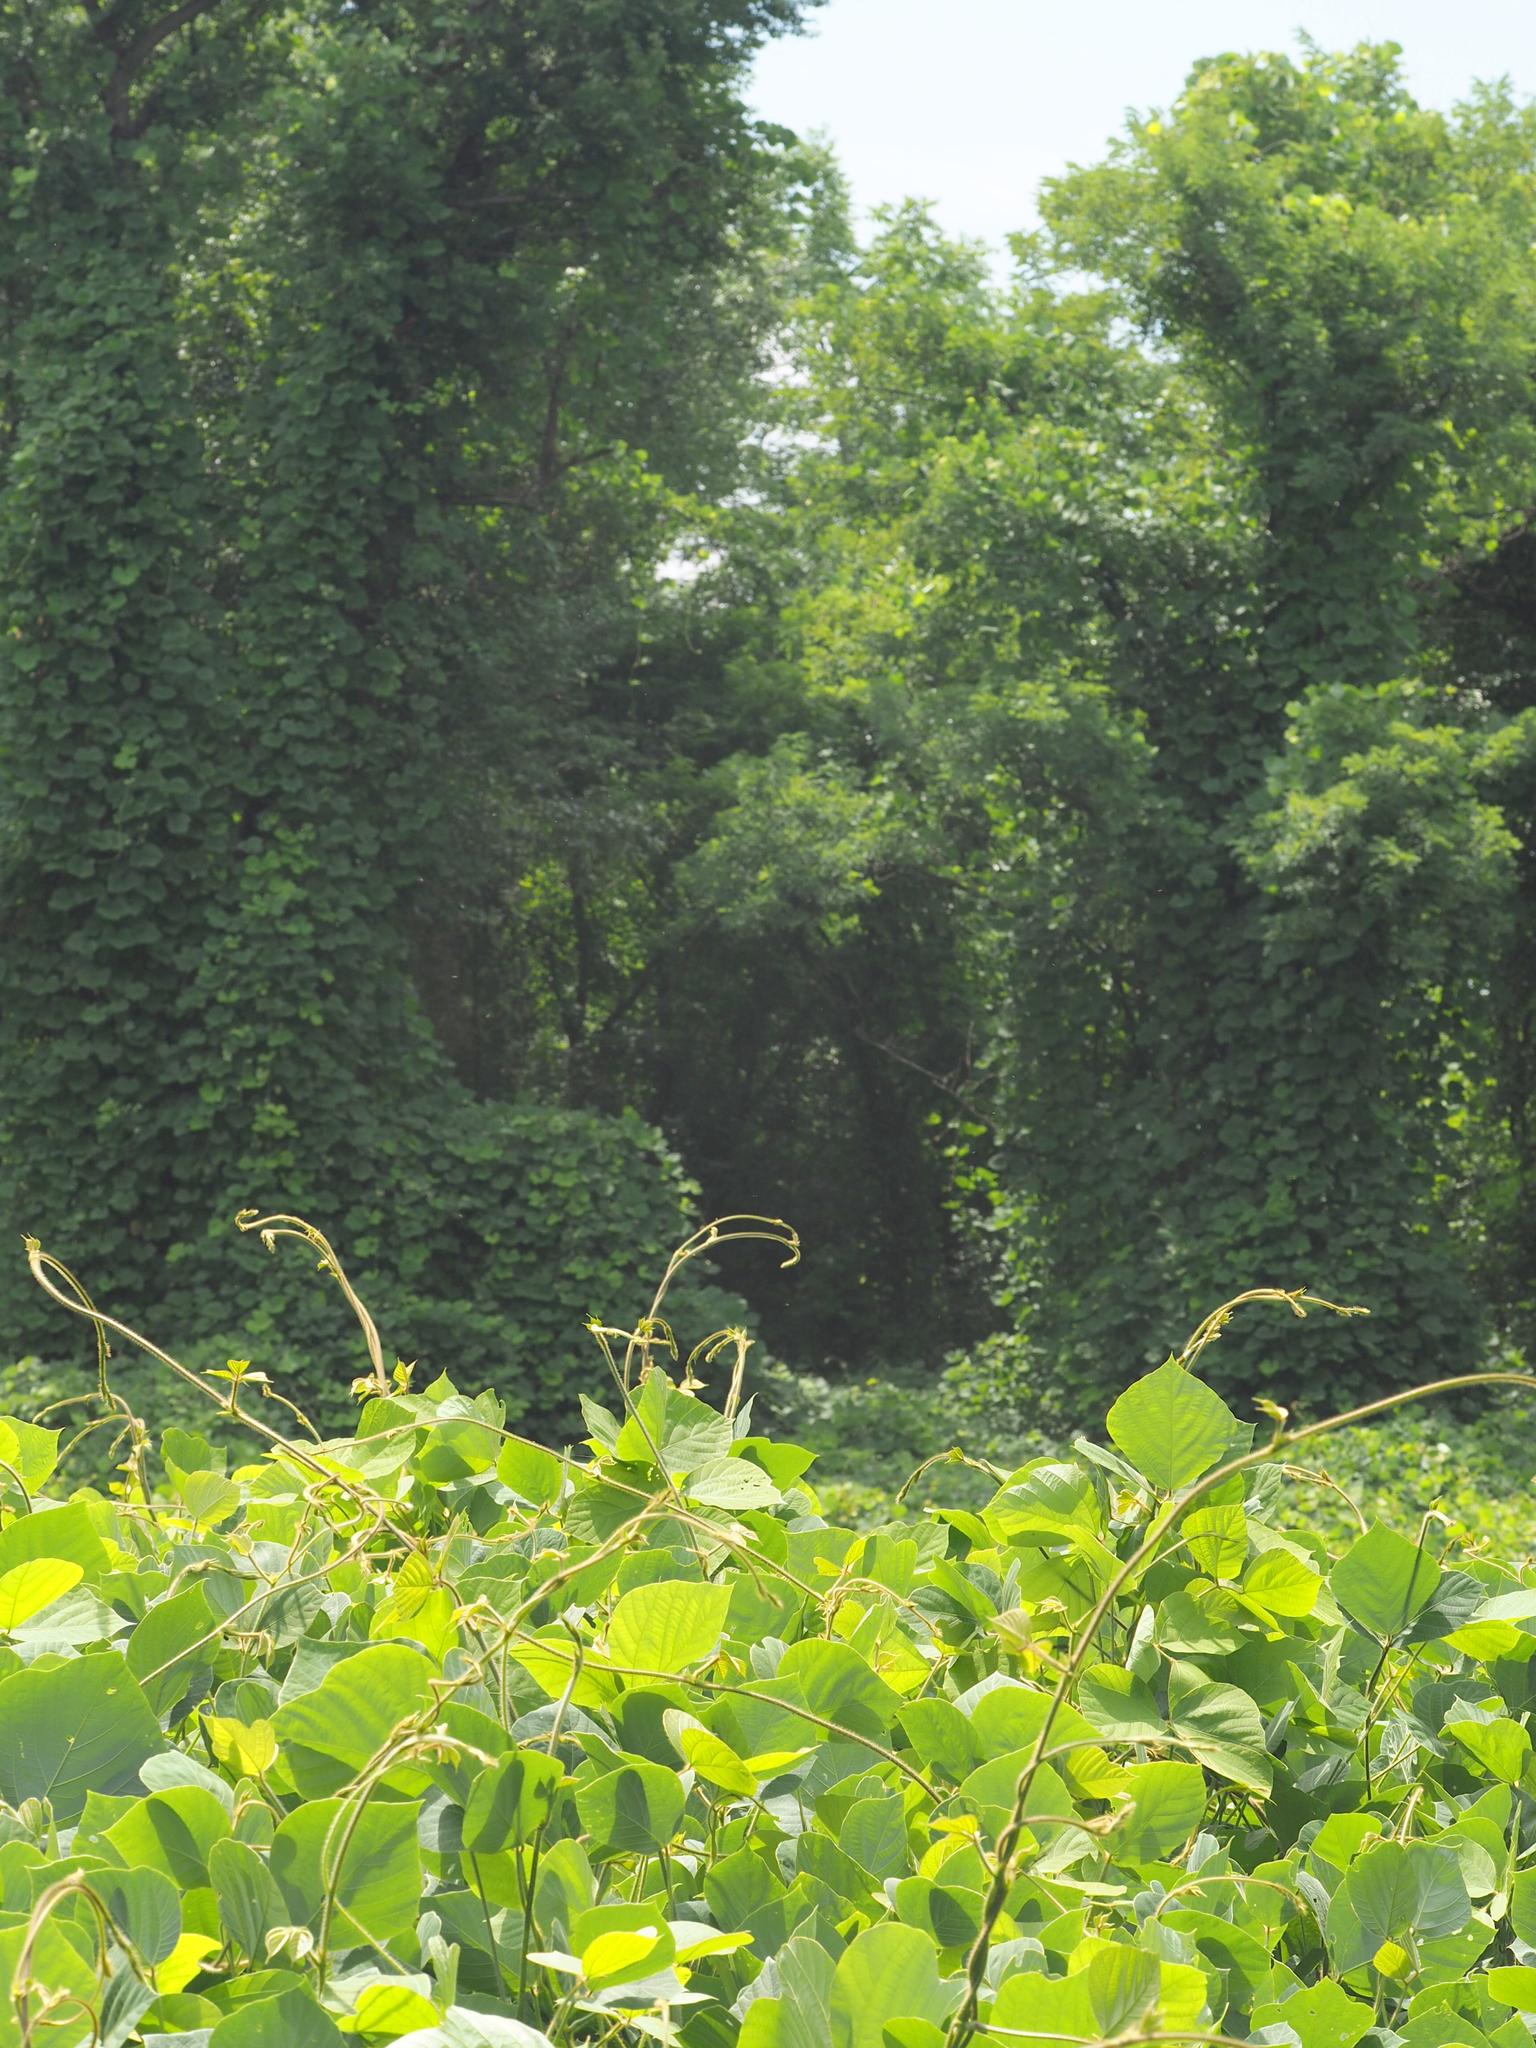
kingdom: Plantae
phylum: Tracheophyta
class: Magnoliopsida
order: Fabales
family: Fabaceae
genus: Pueraria
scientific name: Pueraria montana
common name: Kudzu
